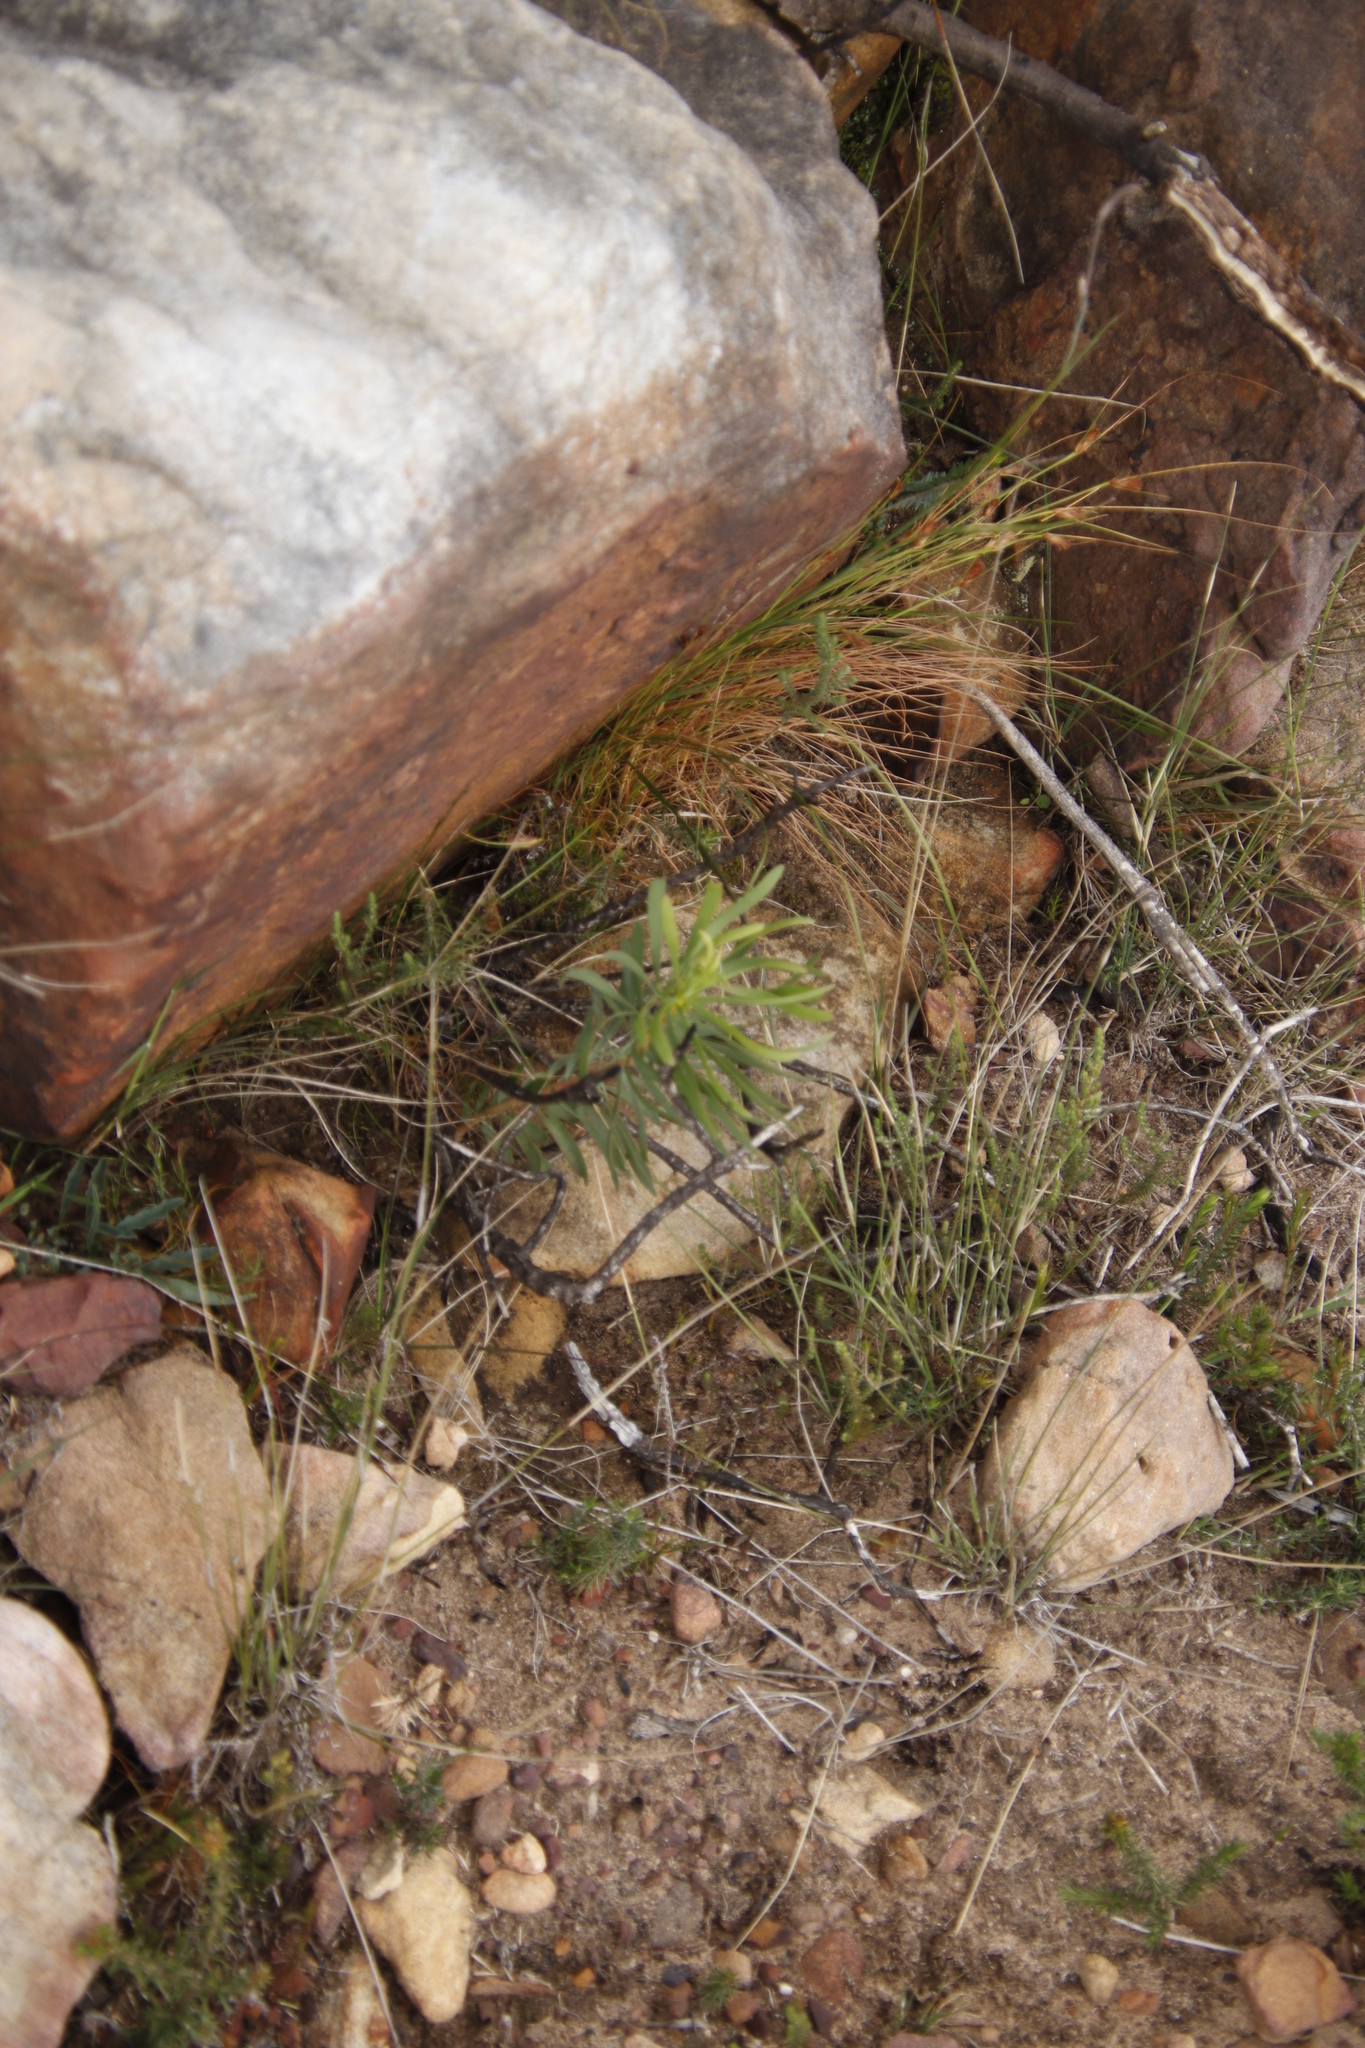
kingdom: Plantae
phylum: Tracheophyta
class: Magnoliopsida
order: Proteales
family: Proteaceae
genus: Protea
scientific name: Protea repens
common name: Sugarbush
